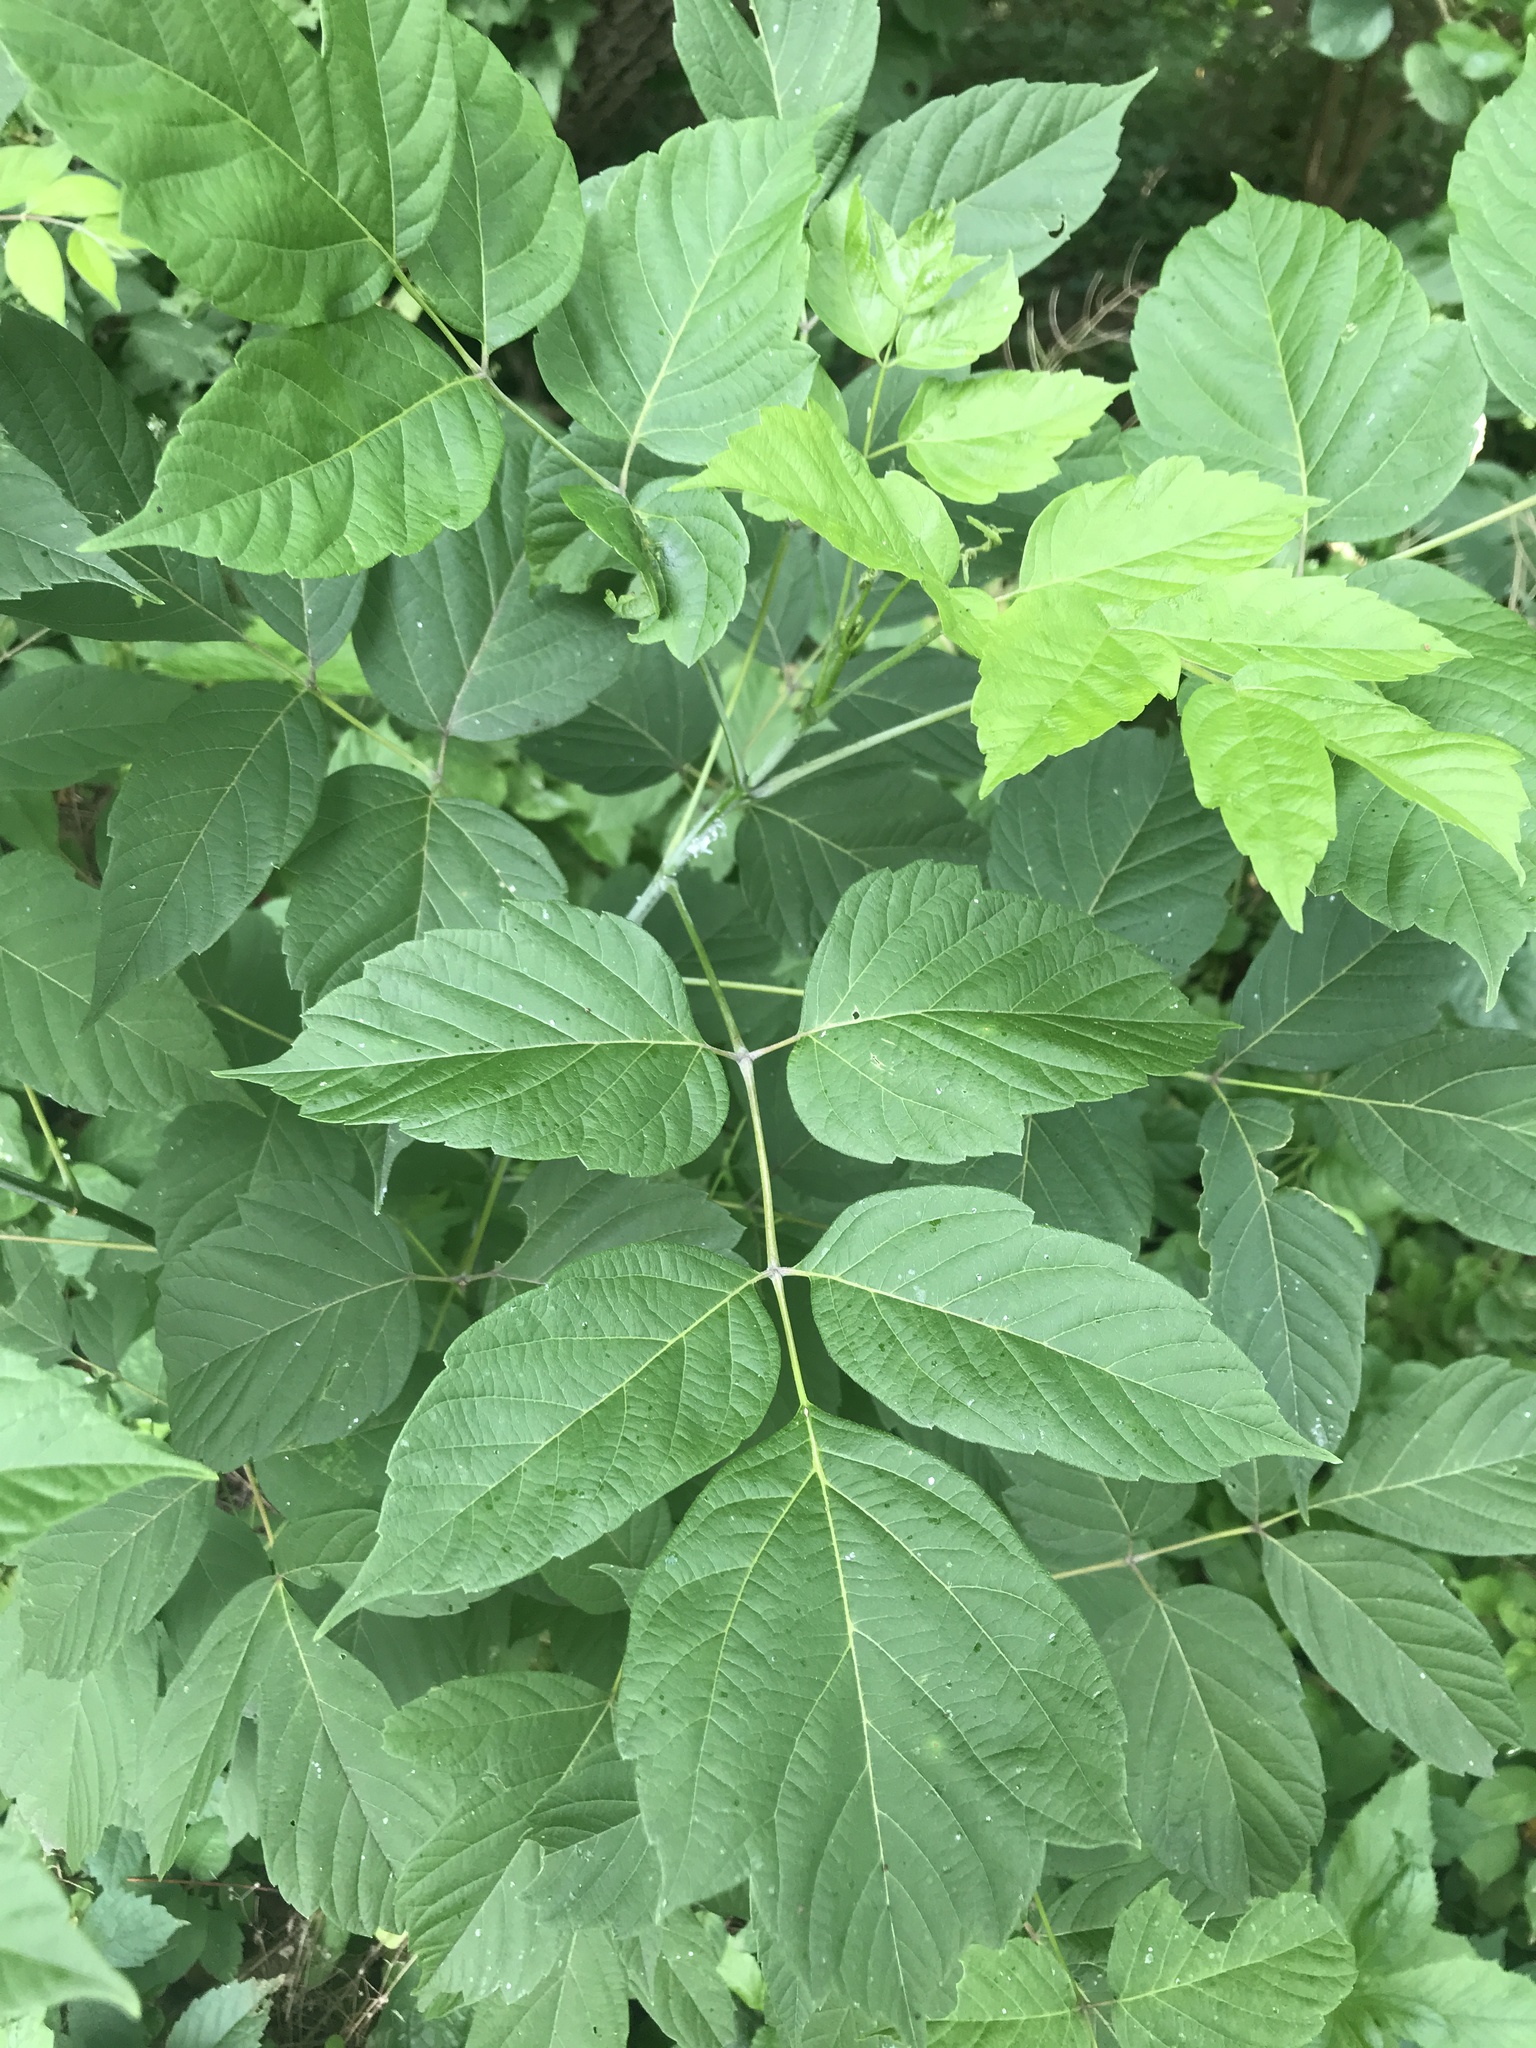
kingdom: Plantae
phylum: Tracheophyta
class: Magnoliopsida
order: Sapindales
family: Sapindaceae
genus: Acer
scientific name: Acer negundo
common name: Ashleaf maple
